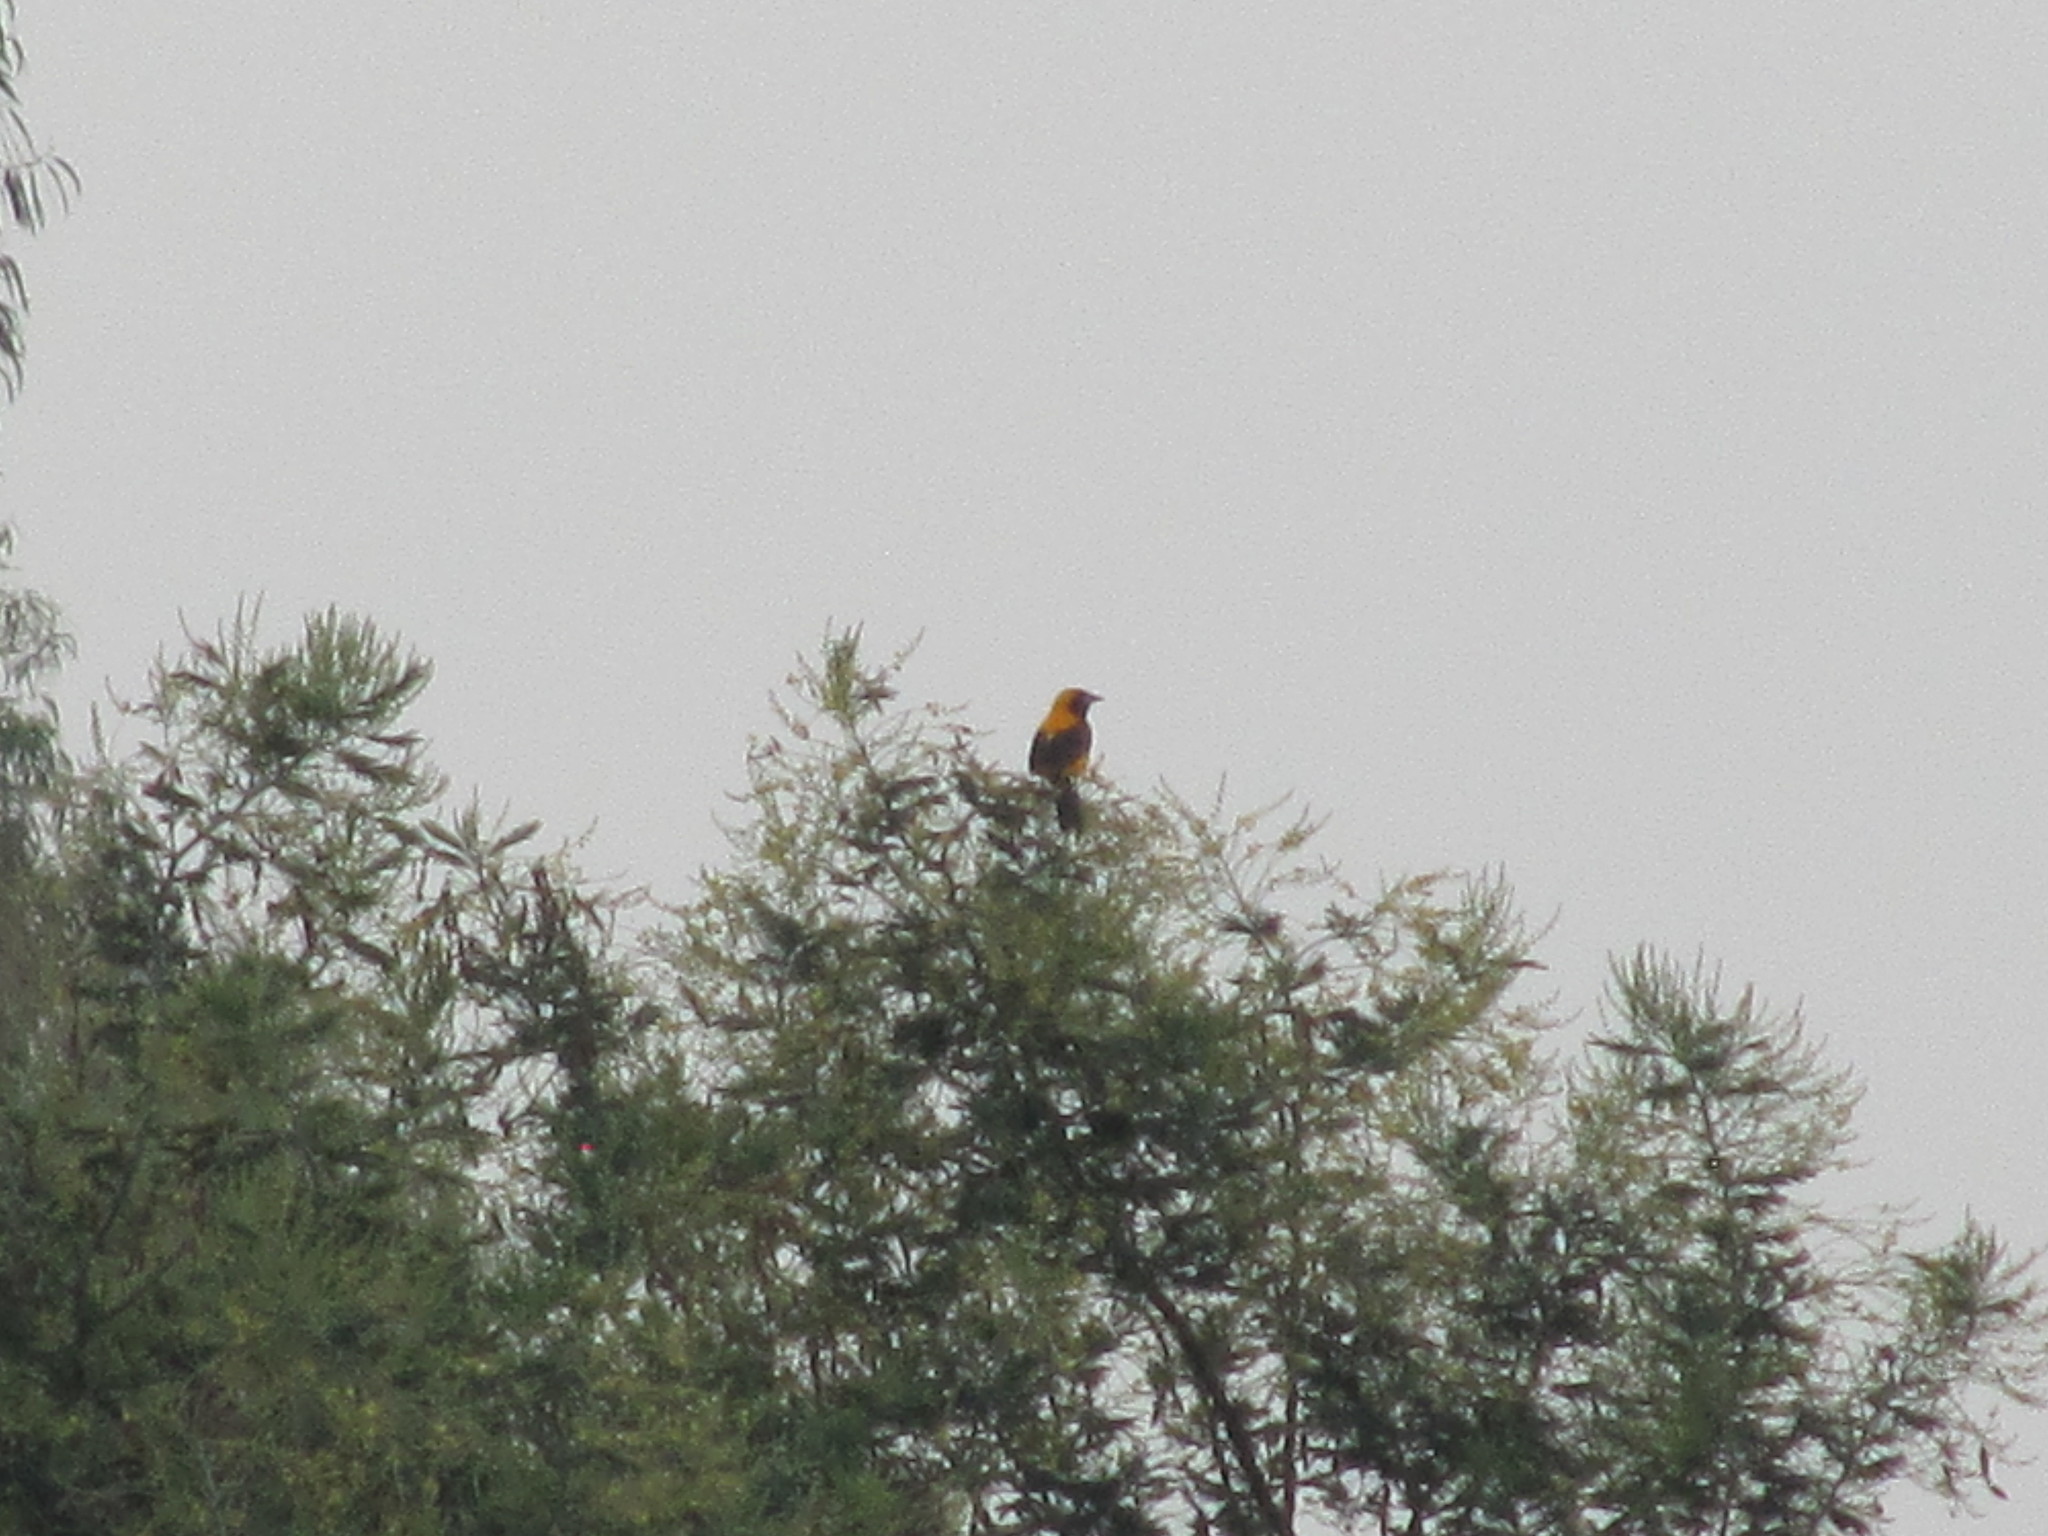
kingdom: Animalia
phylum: Chordata
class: Aves
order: Passeriformes
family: Icteridae
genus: Icterus
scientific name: Icterus chrysater
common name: Yellow-backed oriole
